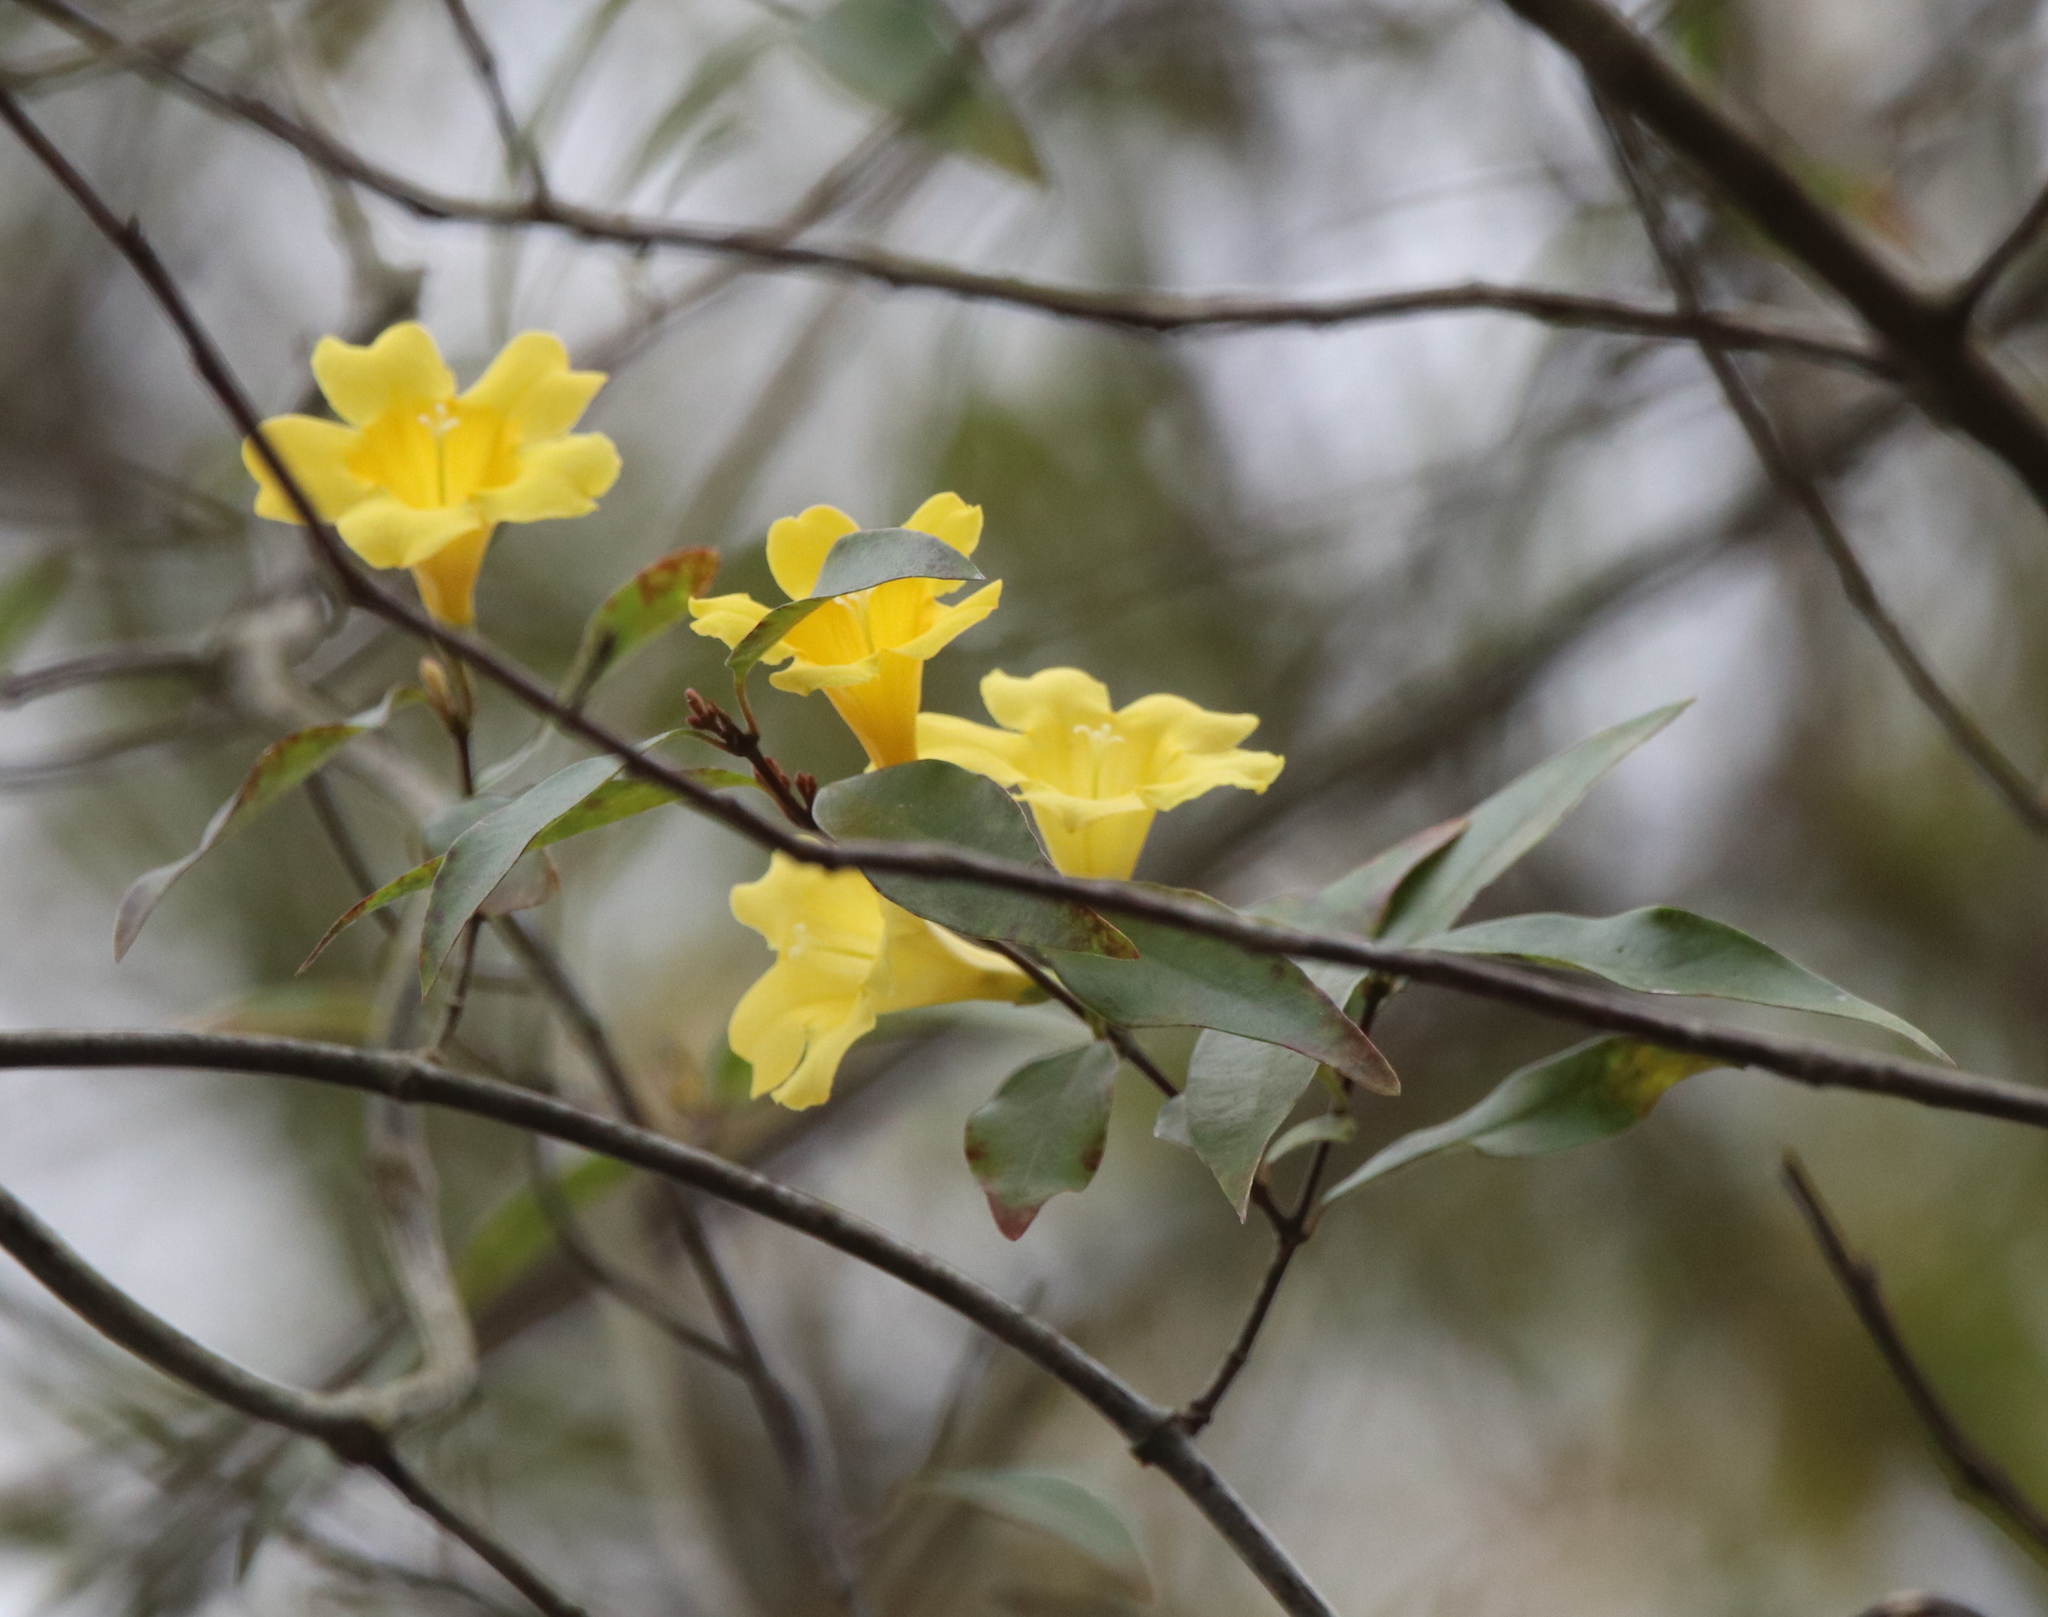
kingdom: Plantae
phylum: Tracheophyta
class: Magnoliopsida
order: Gentianales
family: Gelsemiaceae
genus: Gelsemium
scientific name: Gelsemium sempervirens
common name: Carolina-jasmine
